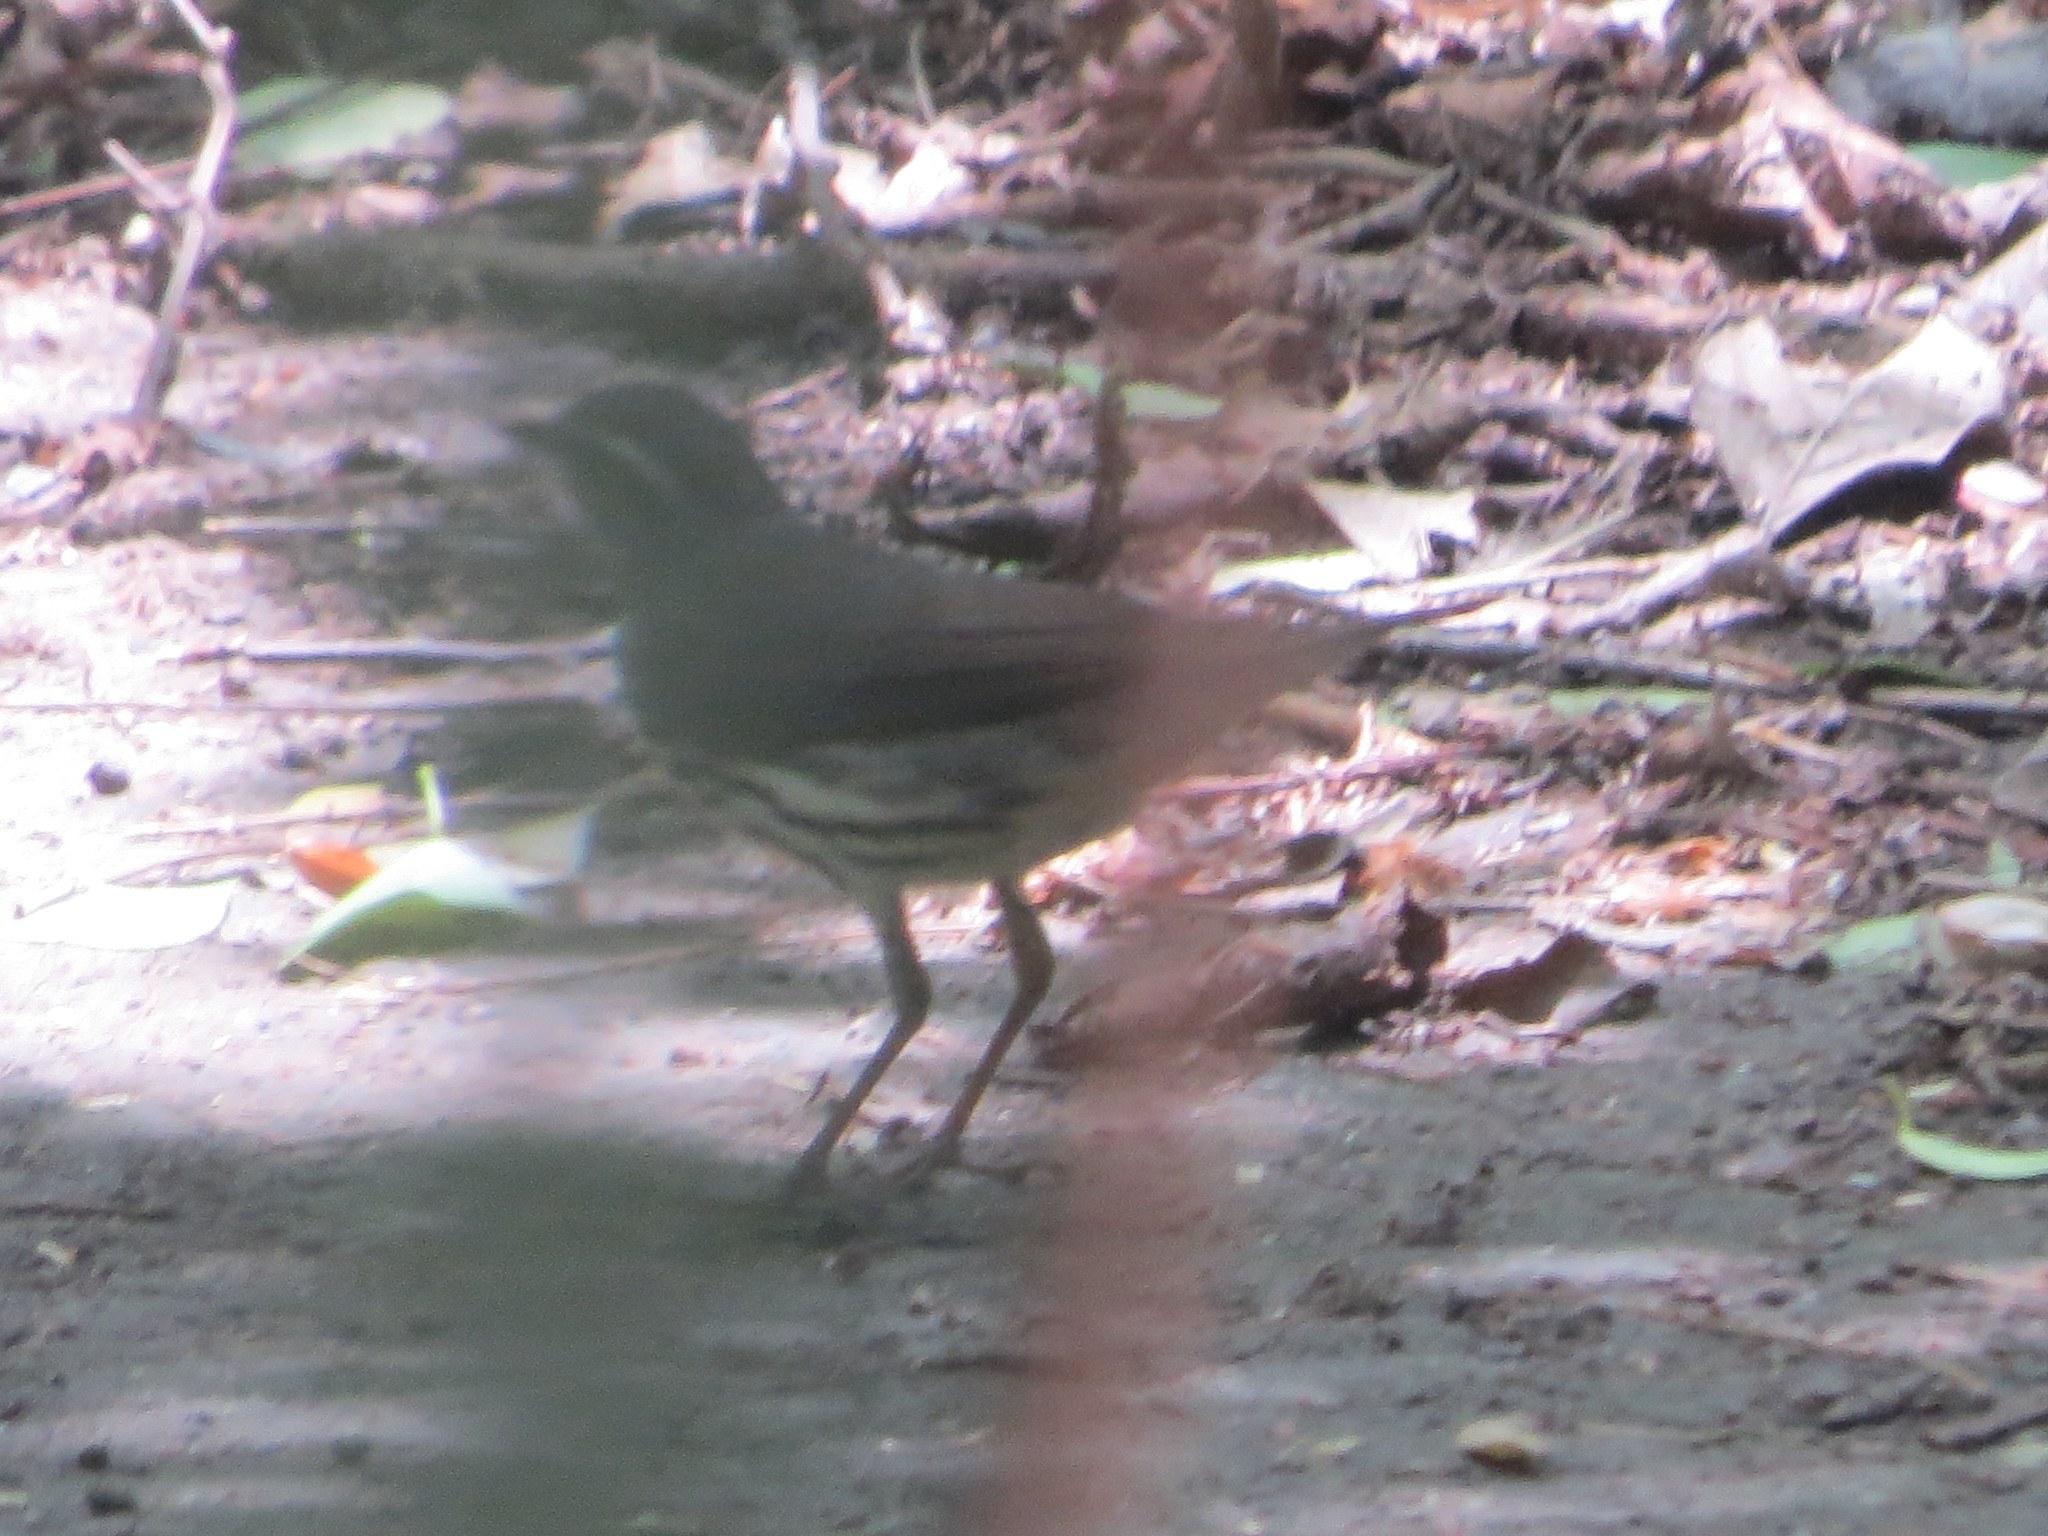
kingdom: Animalia
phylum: Chordata
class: Aves
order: Passeriformes
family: Parulidae
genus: Parkesia
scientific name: Parkesia noveboracensis
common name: Northern waterthrush
